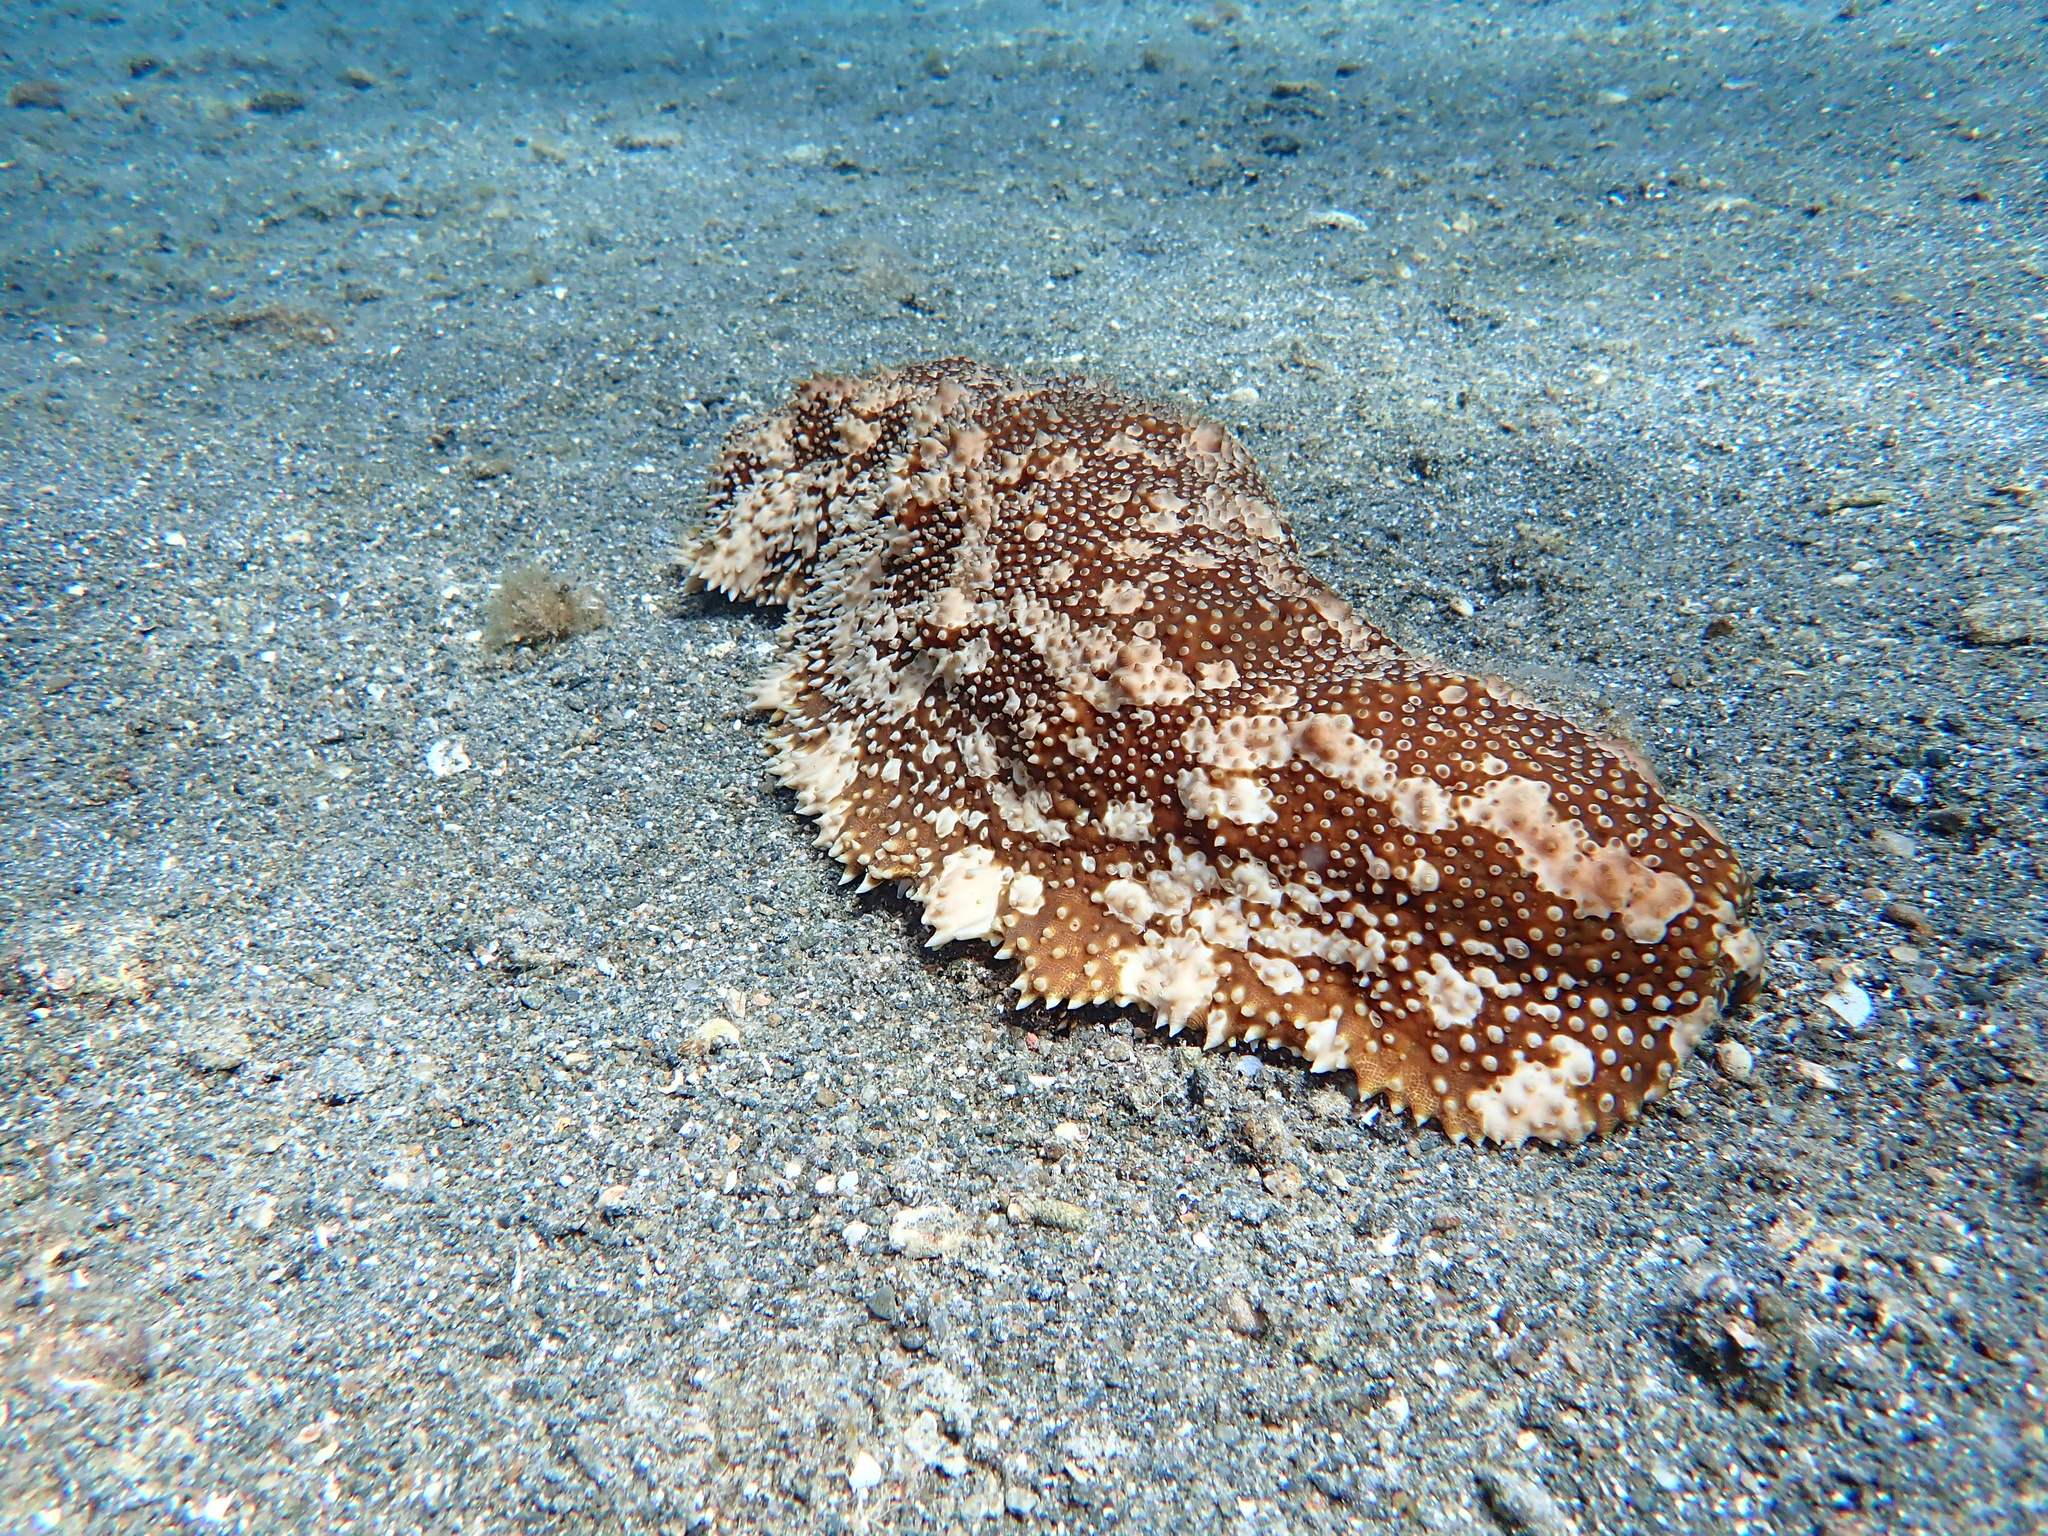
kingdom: Animalia
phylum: Echinodermata
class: Holothuroidea
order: Synallactida
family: Stichopodidae
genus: Astichopus
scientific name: Astichopus multifidus
